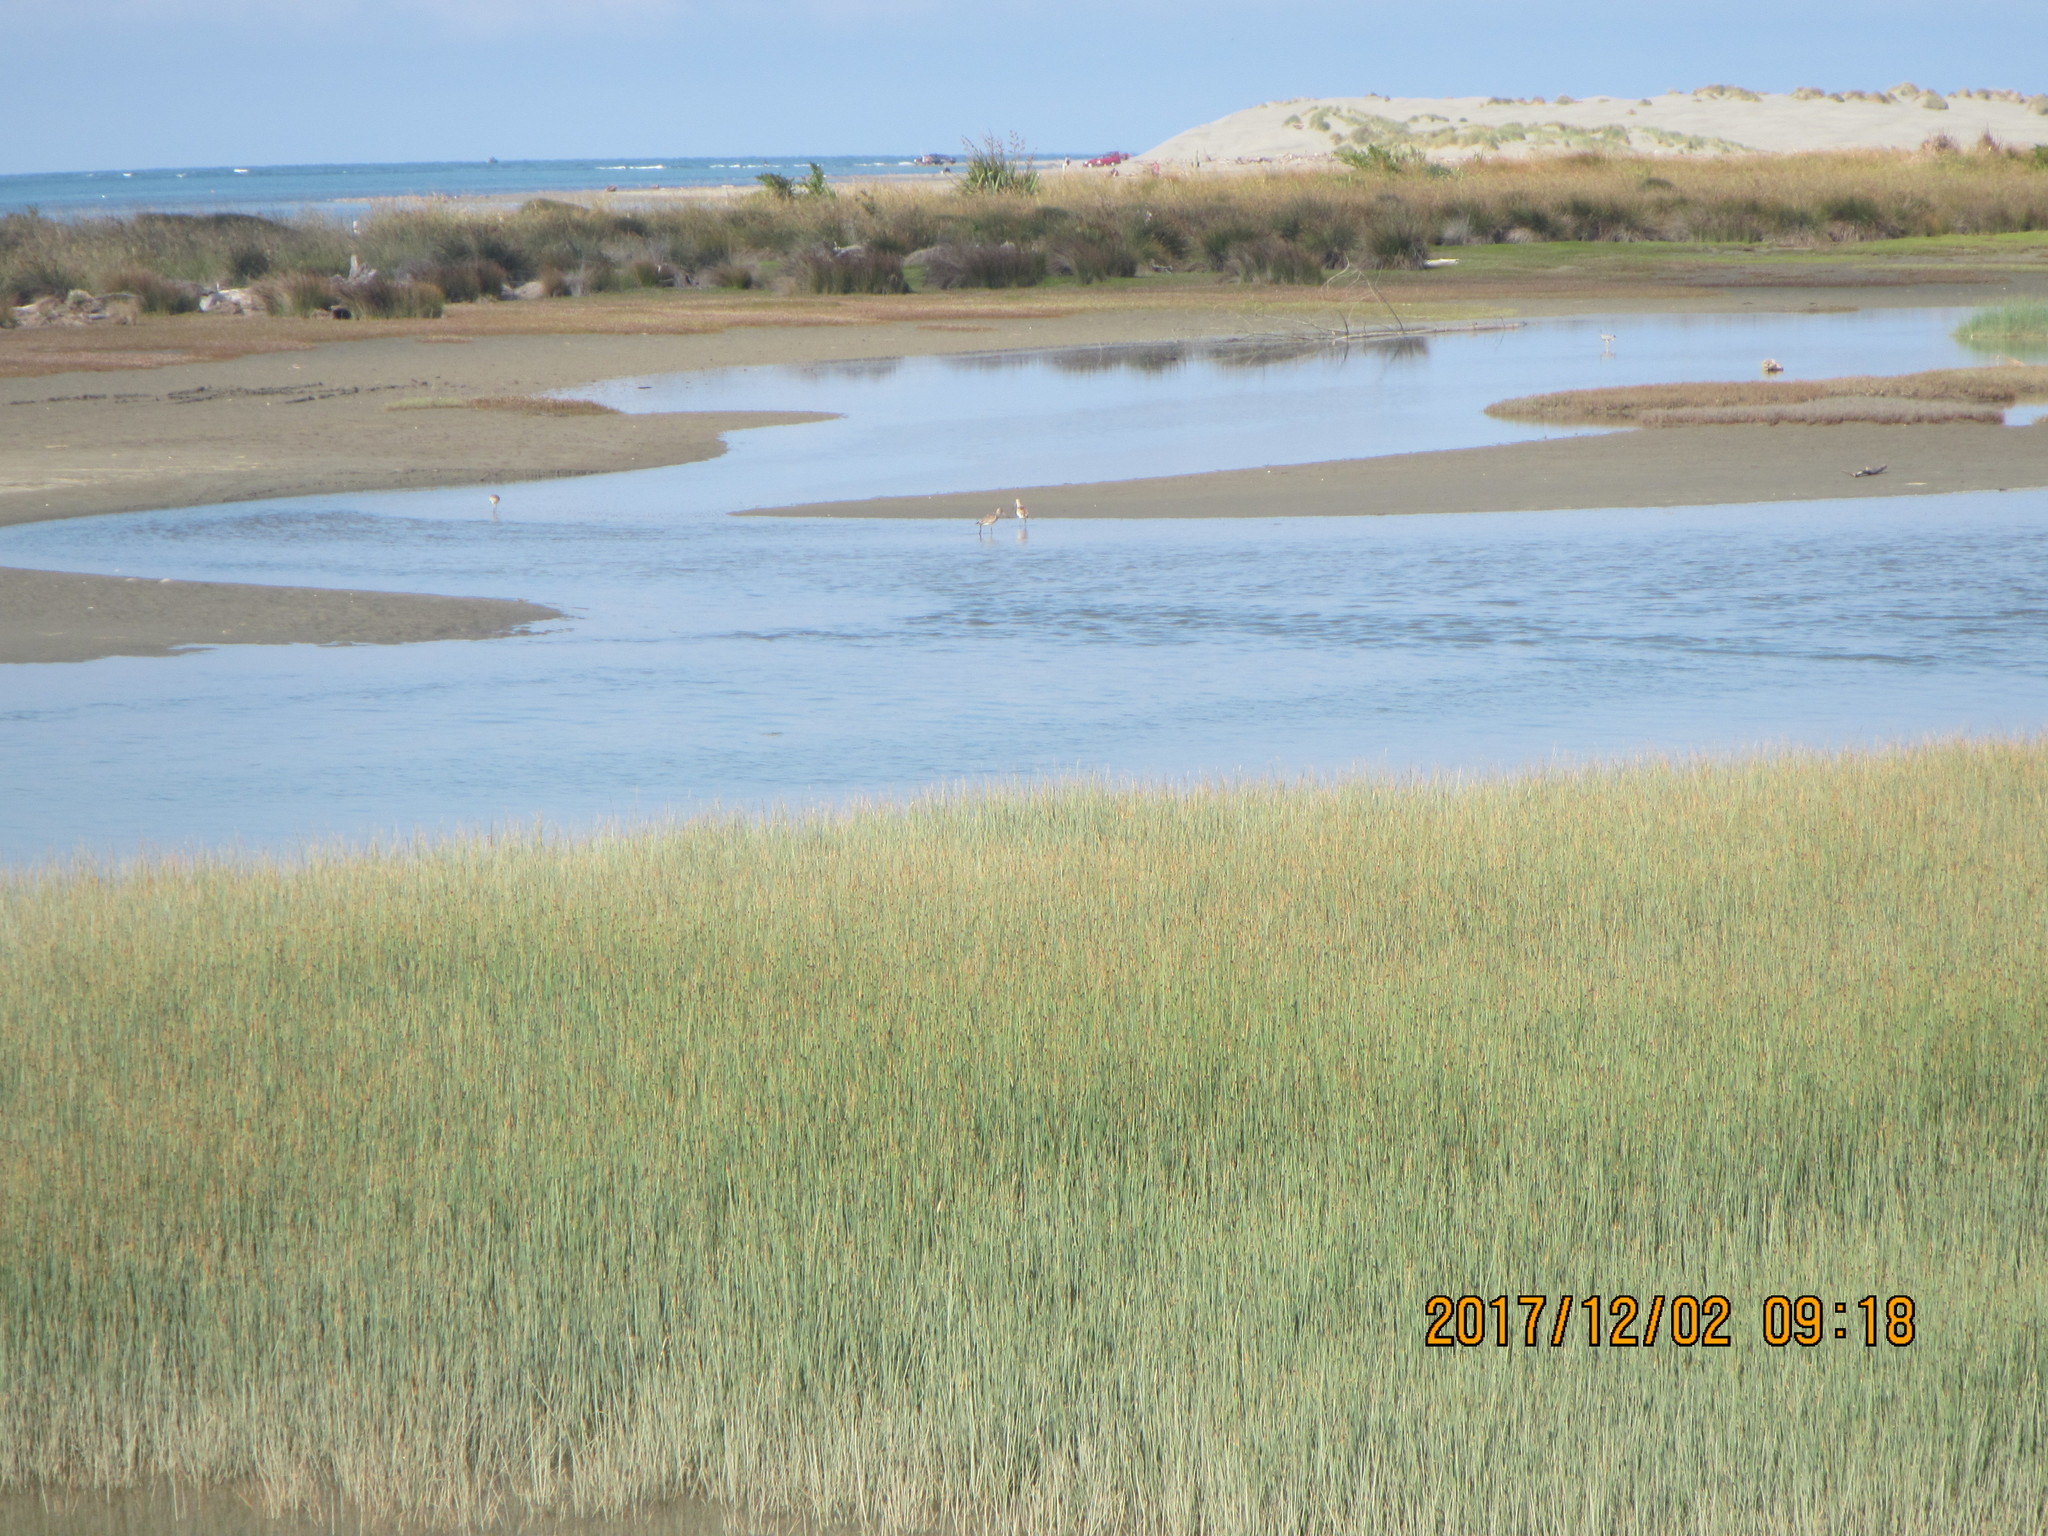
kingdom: Animalia
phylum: Chordata
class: Aves
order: Charadriiformes
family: Scolopacidae
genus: Limosa
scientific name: Limosa lapponica
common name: Bar-tailed godwit
